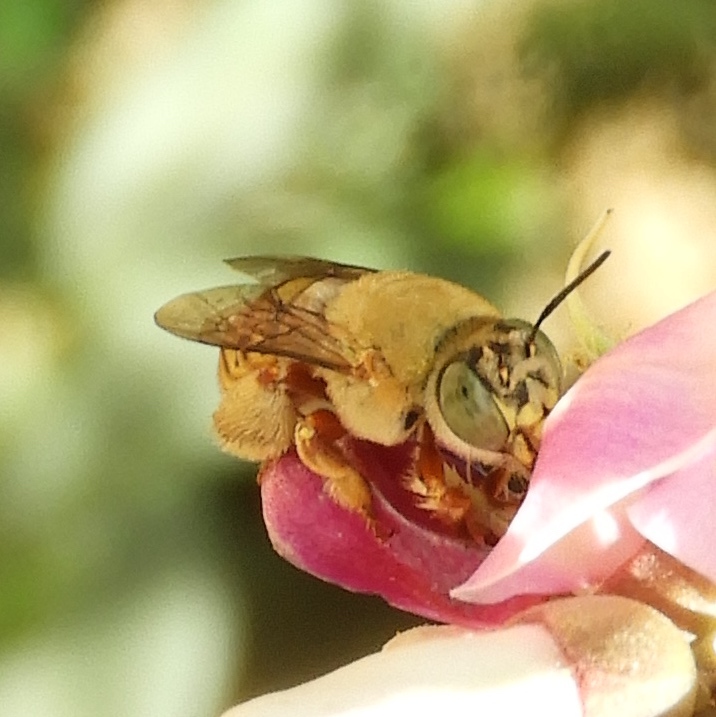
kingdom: Animalia
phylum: Arthropoda
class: Insecta
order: Hymenoptera
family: Apidae
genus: Centris
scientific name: Centris
